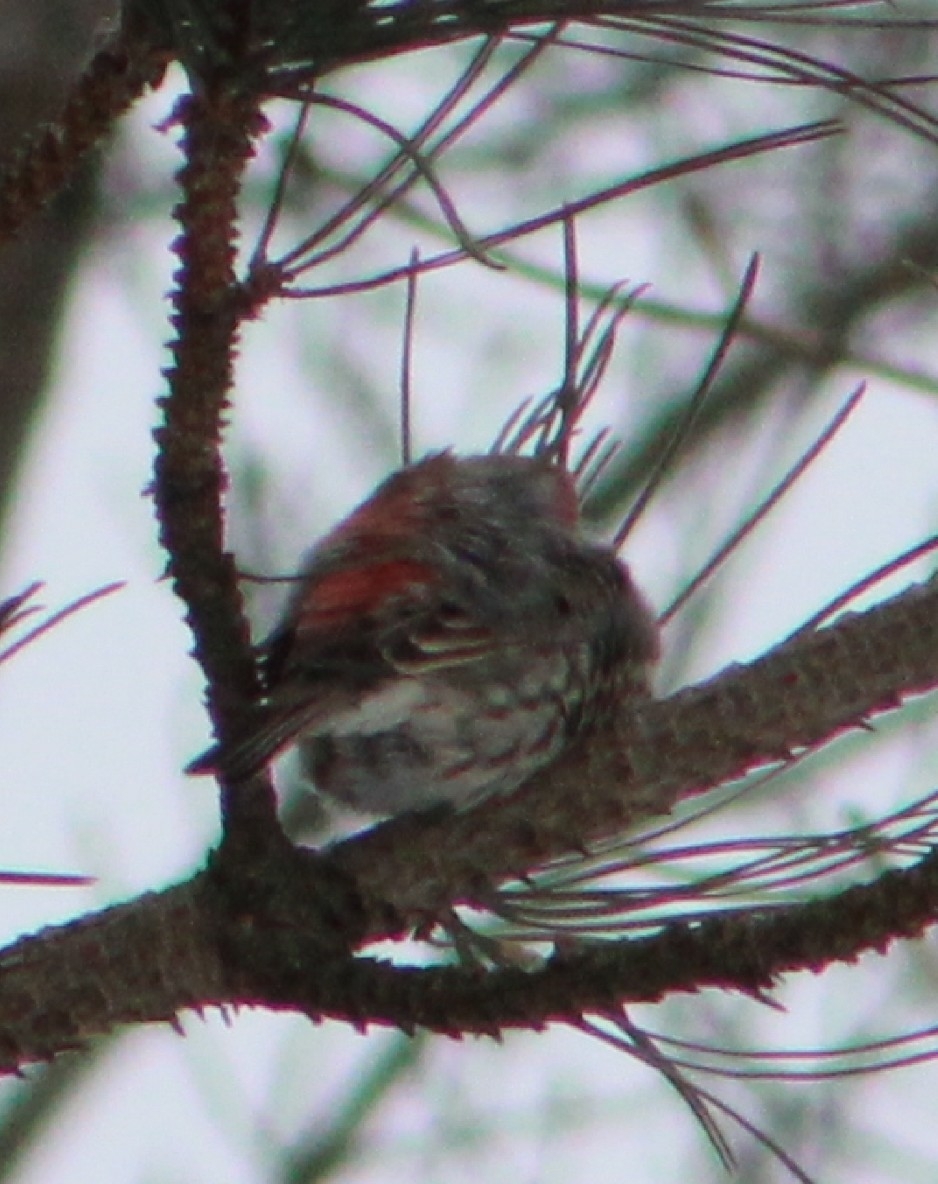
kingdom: Animalia
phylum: Chordata
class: Aves
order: Passeriformes
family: Fringillidae
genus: Haemorhous
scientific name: Haemorhous mexicanus
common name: House finch
